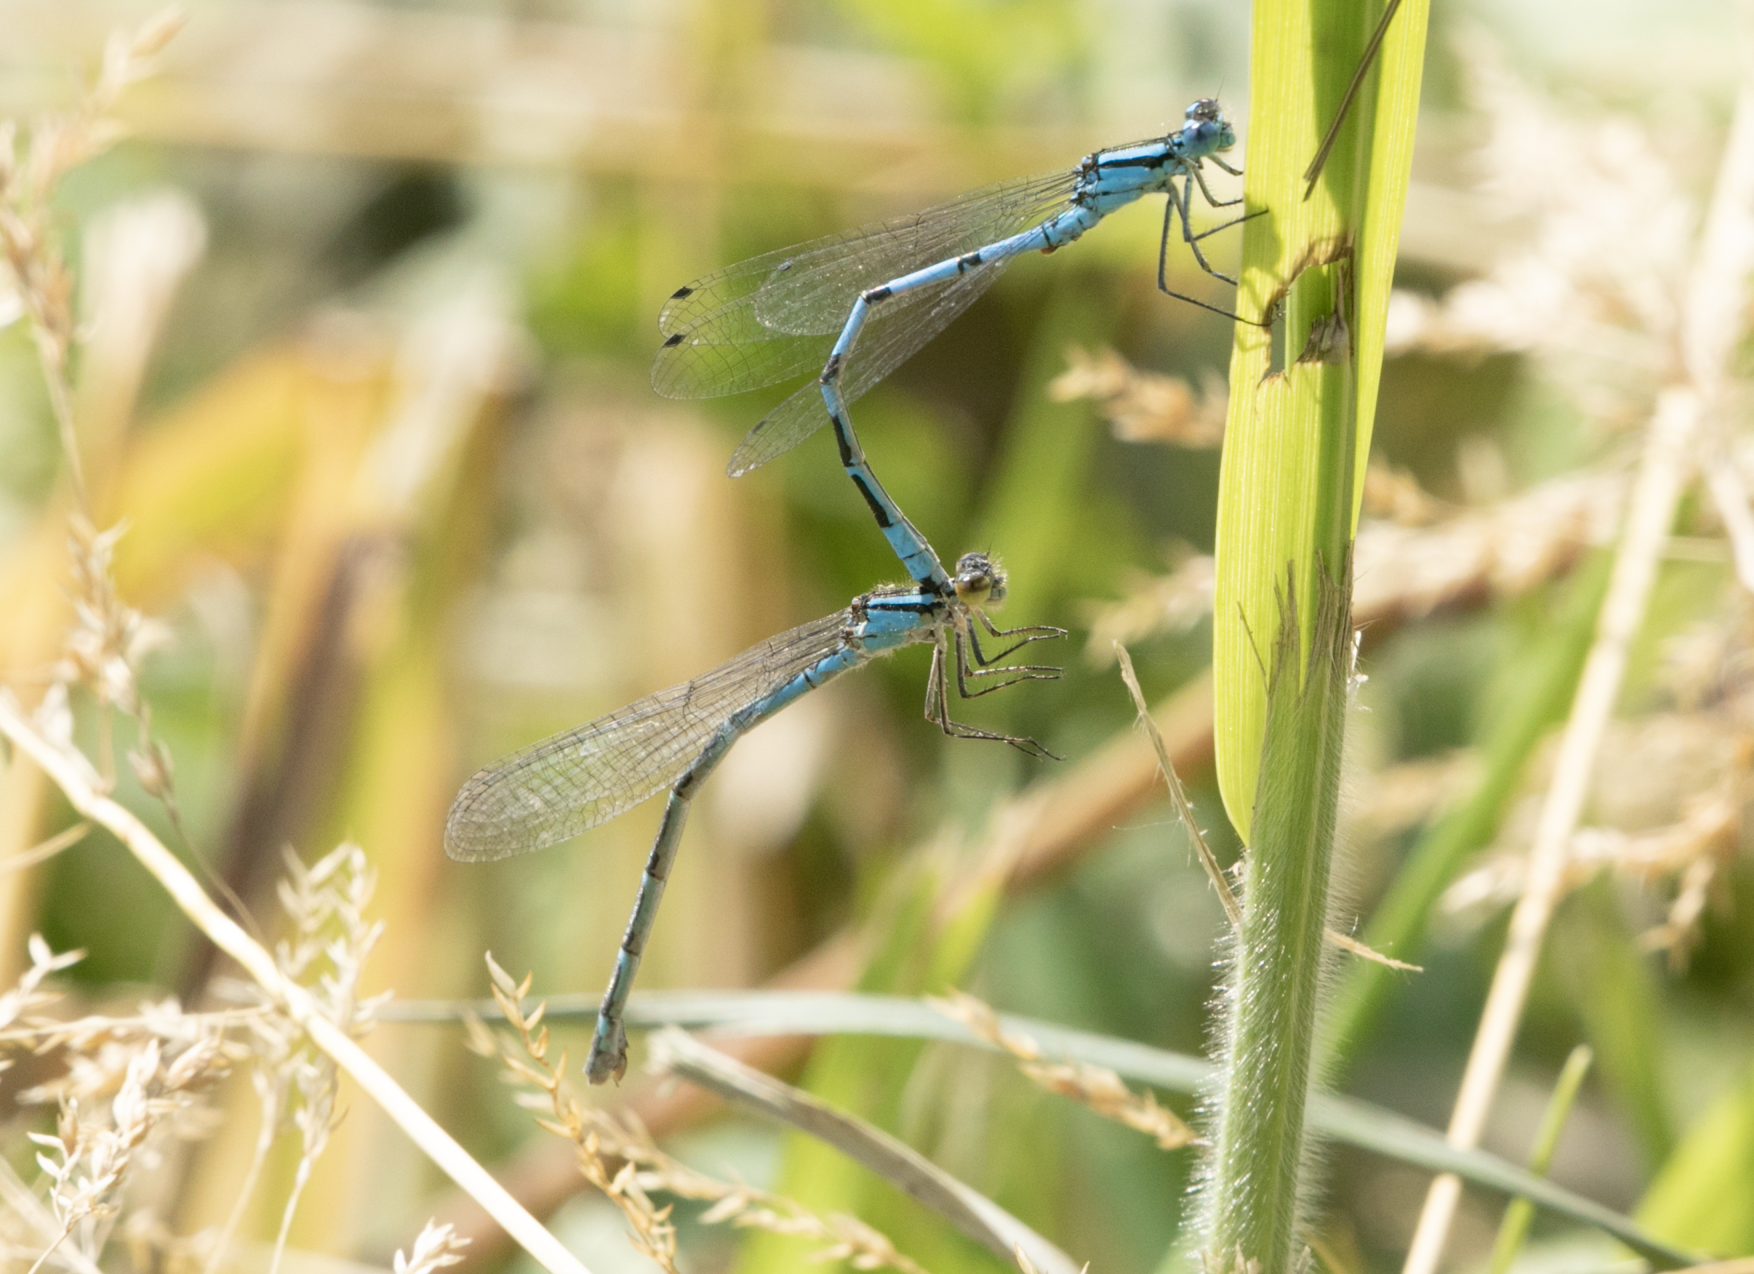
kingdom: Animalia
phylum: Arthropoda
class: Insecta
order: Odonata
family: Coenagrionidae
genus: Enallagma
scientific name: Enallagma cyathigerum
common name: Common blue damselfly
